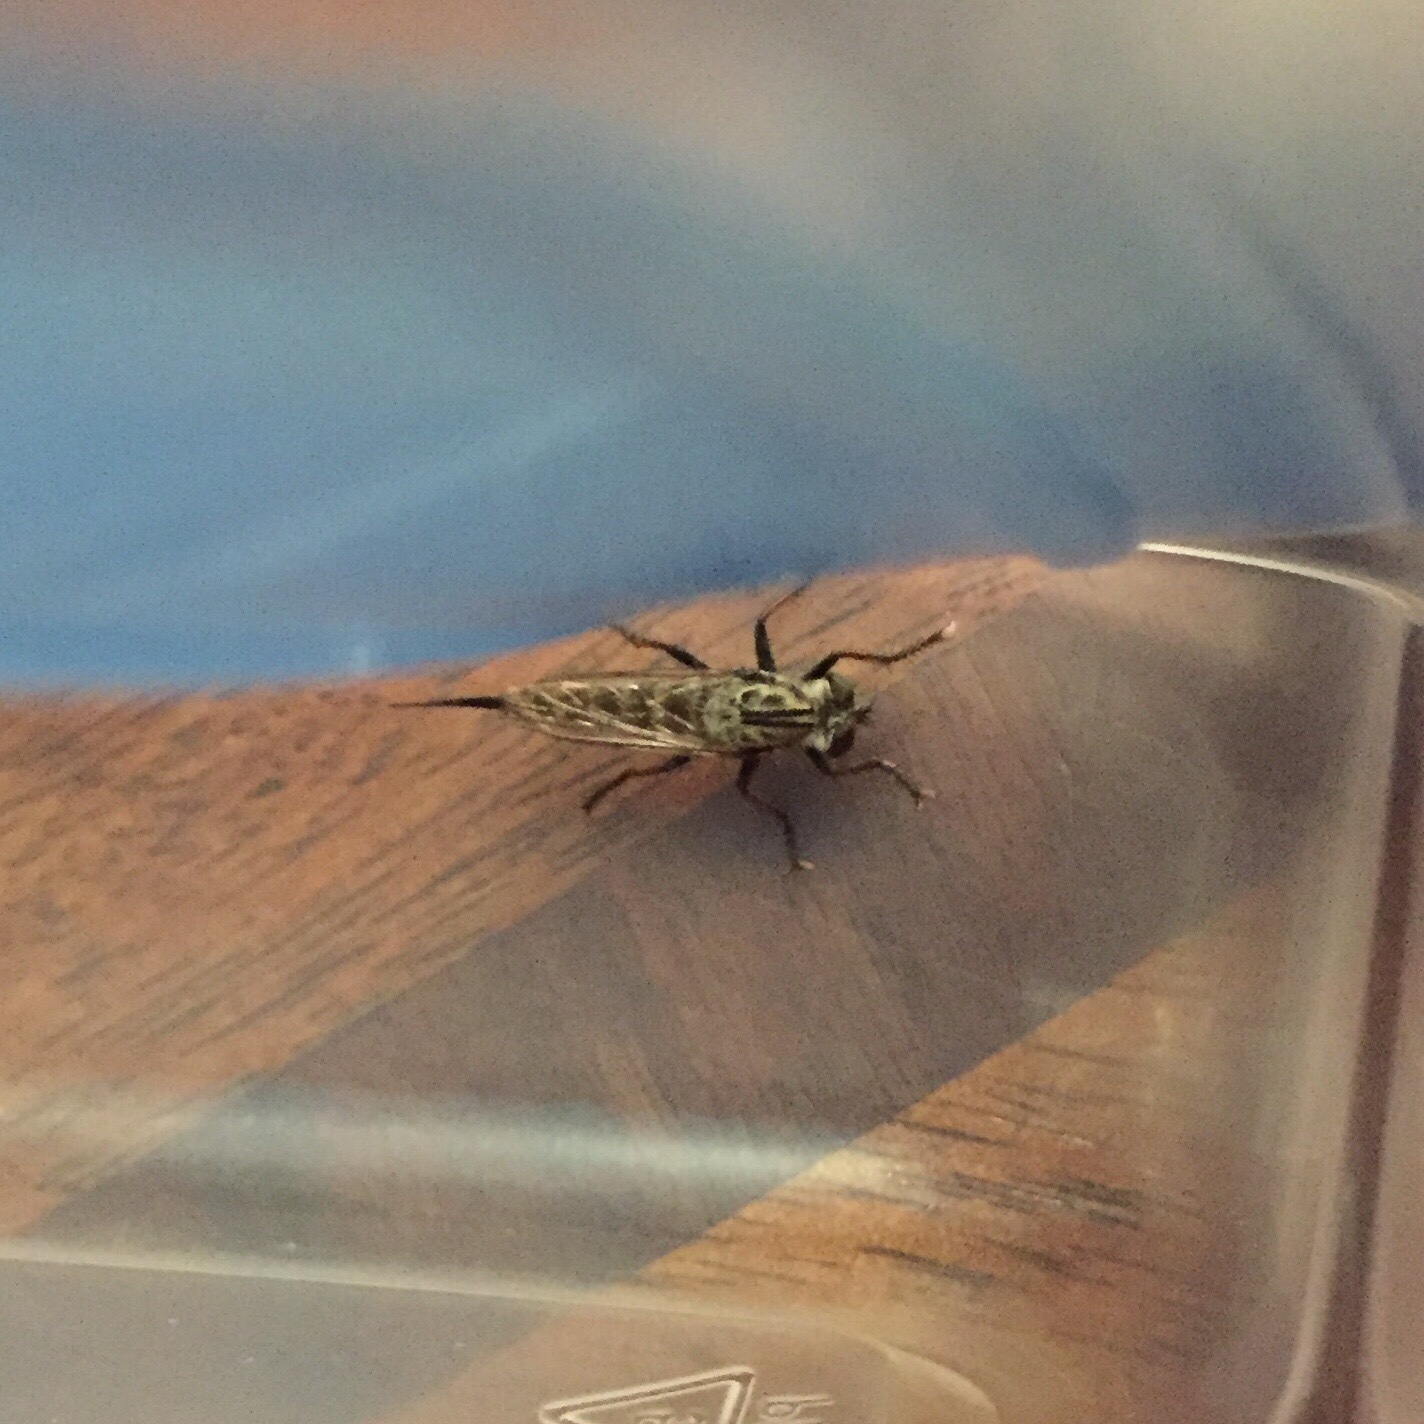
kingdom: Animalia
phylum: Arthropoda
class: Insecta
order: Diptera
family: Asilidae
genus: Efferia
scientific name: Efferia aestuans
